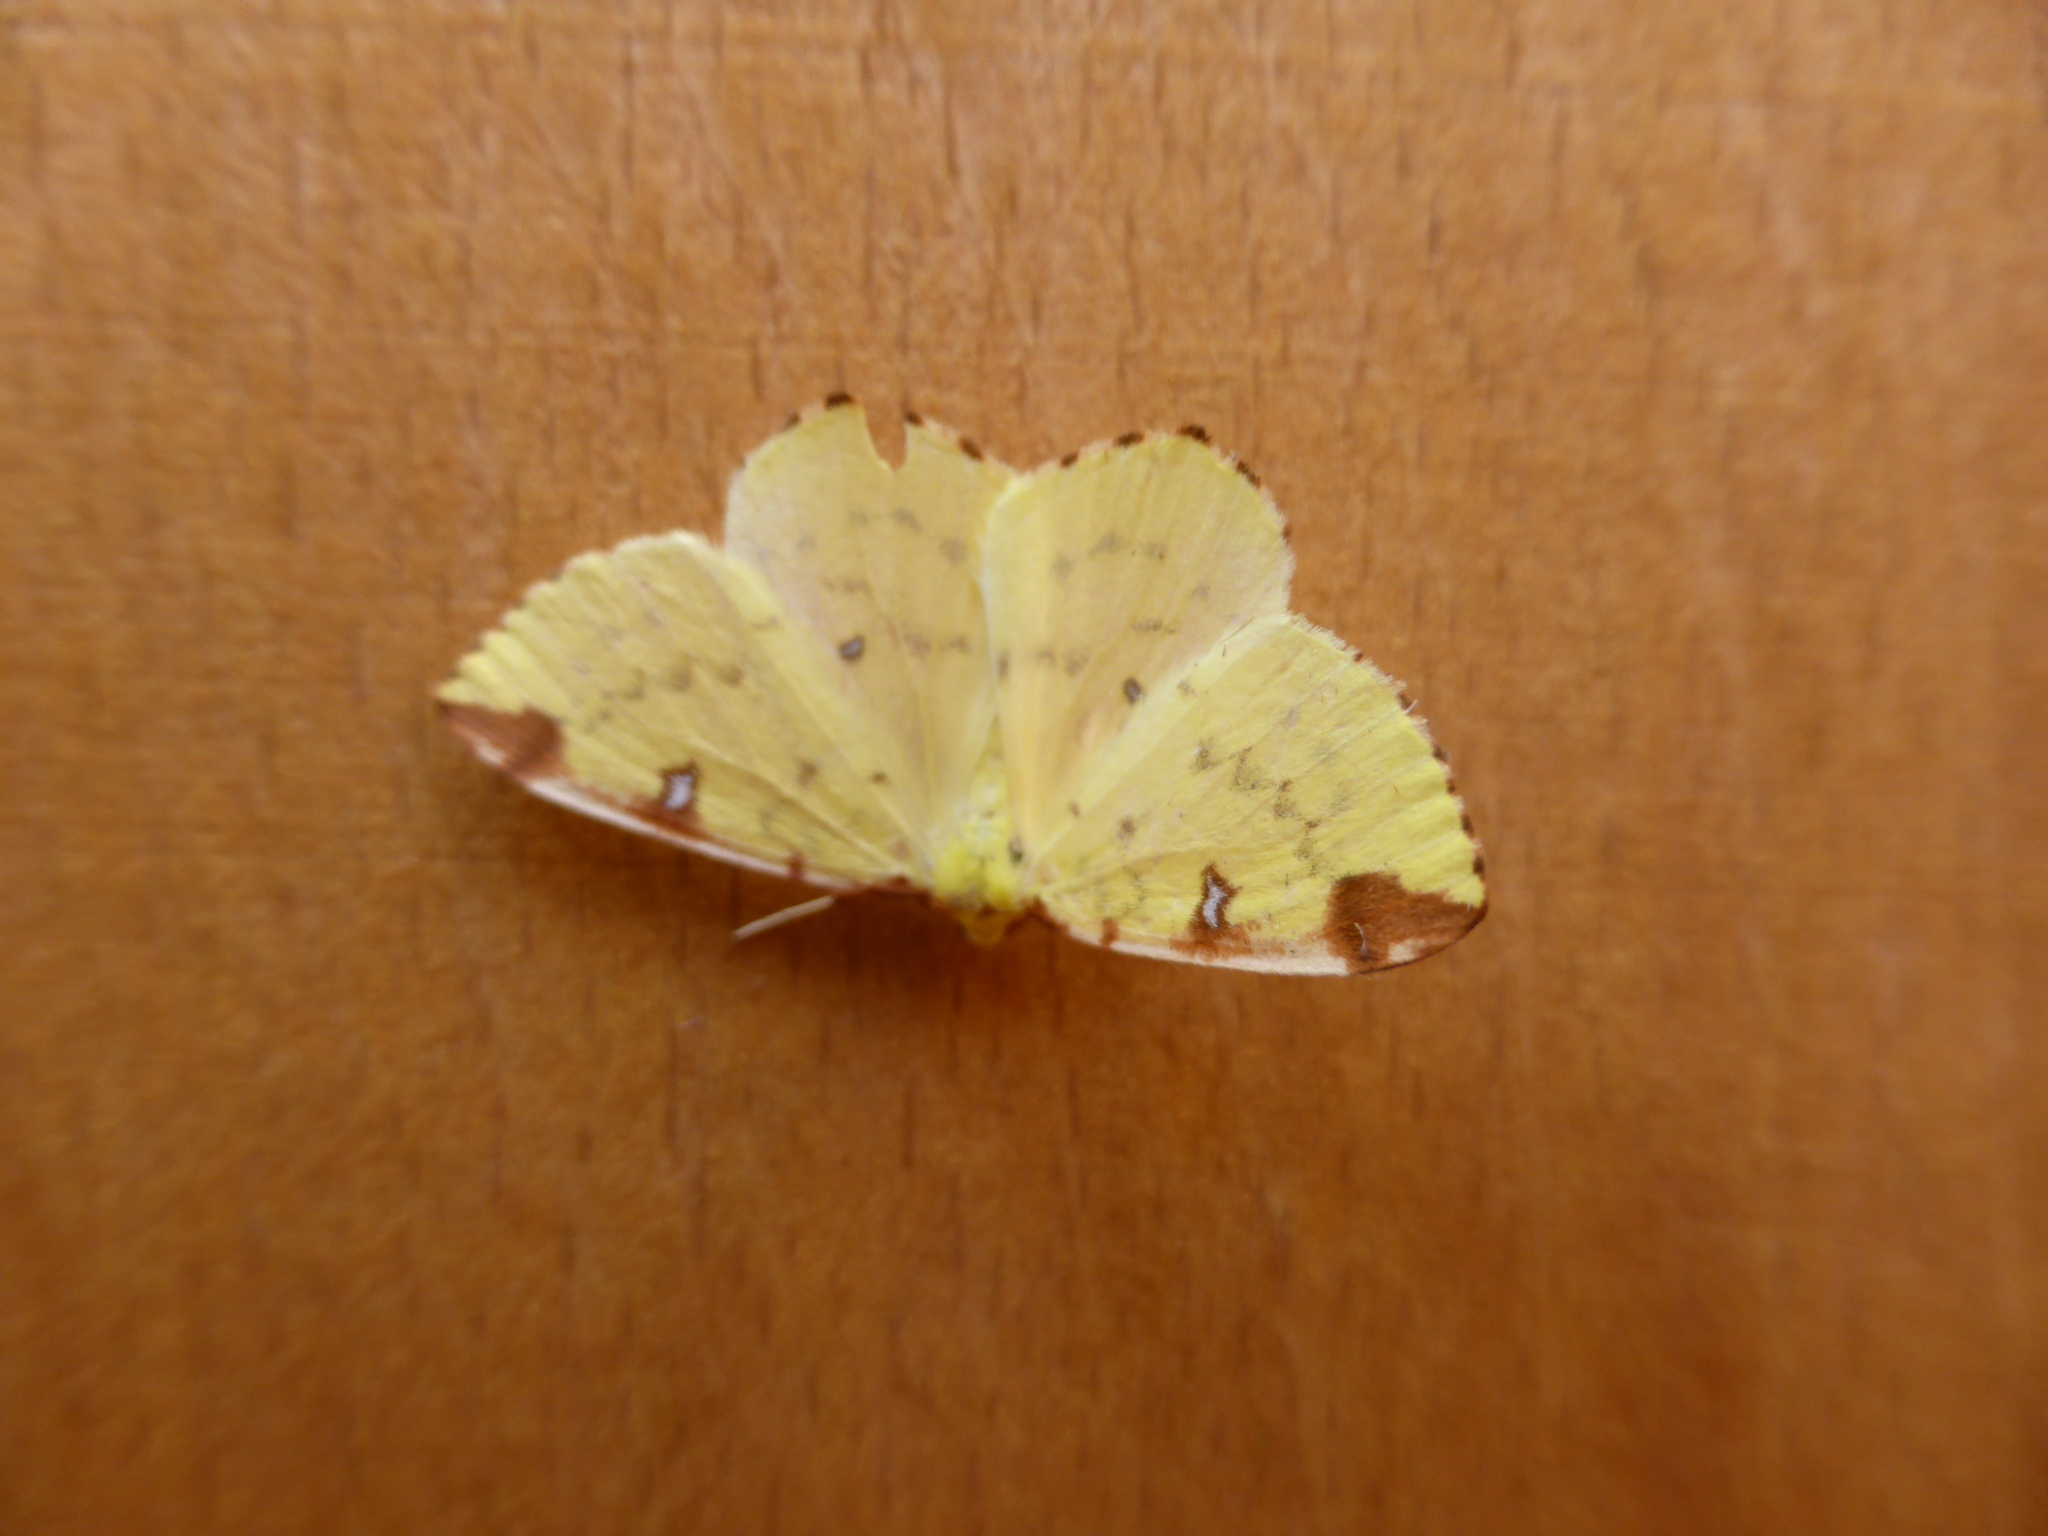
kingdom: Animalia
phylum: Arthropoda
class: Insecta
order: Lepidoptera
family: Geometridae
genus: Opisthograptis
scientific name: Opisthograptis luteolata
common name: Brimstone moth
